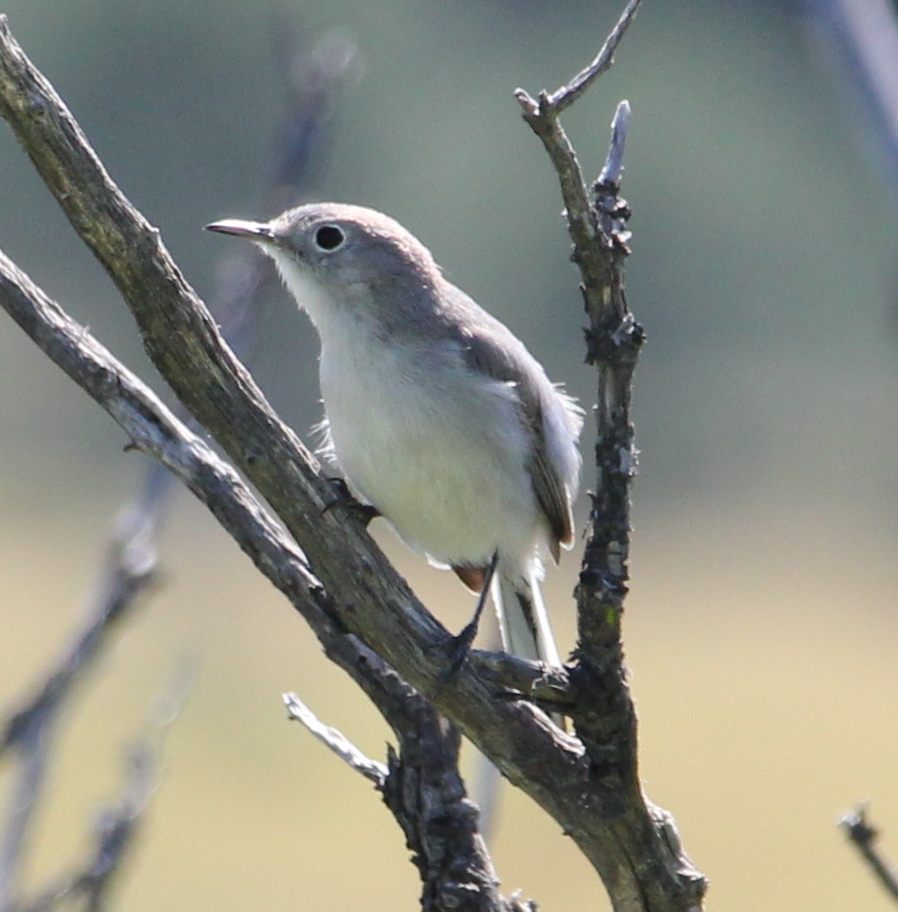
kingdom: Animalia
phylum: Chordata
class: Aves
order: Passeriformes
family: Polioptilidae
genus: Polioptila
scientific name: Polioptila caerulea
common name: Blue-gray gnatcatcher
